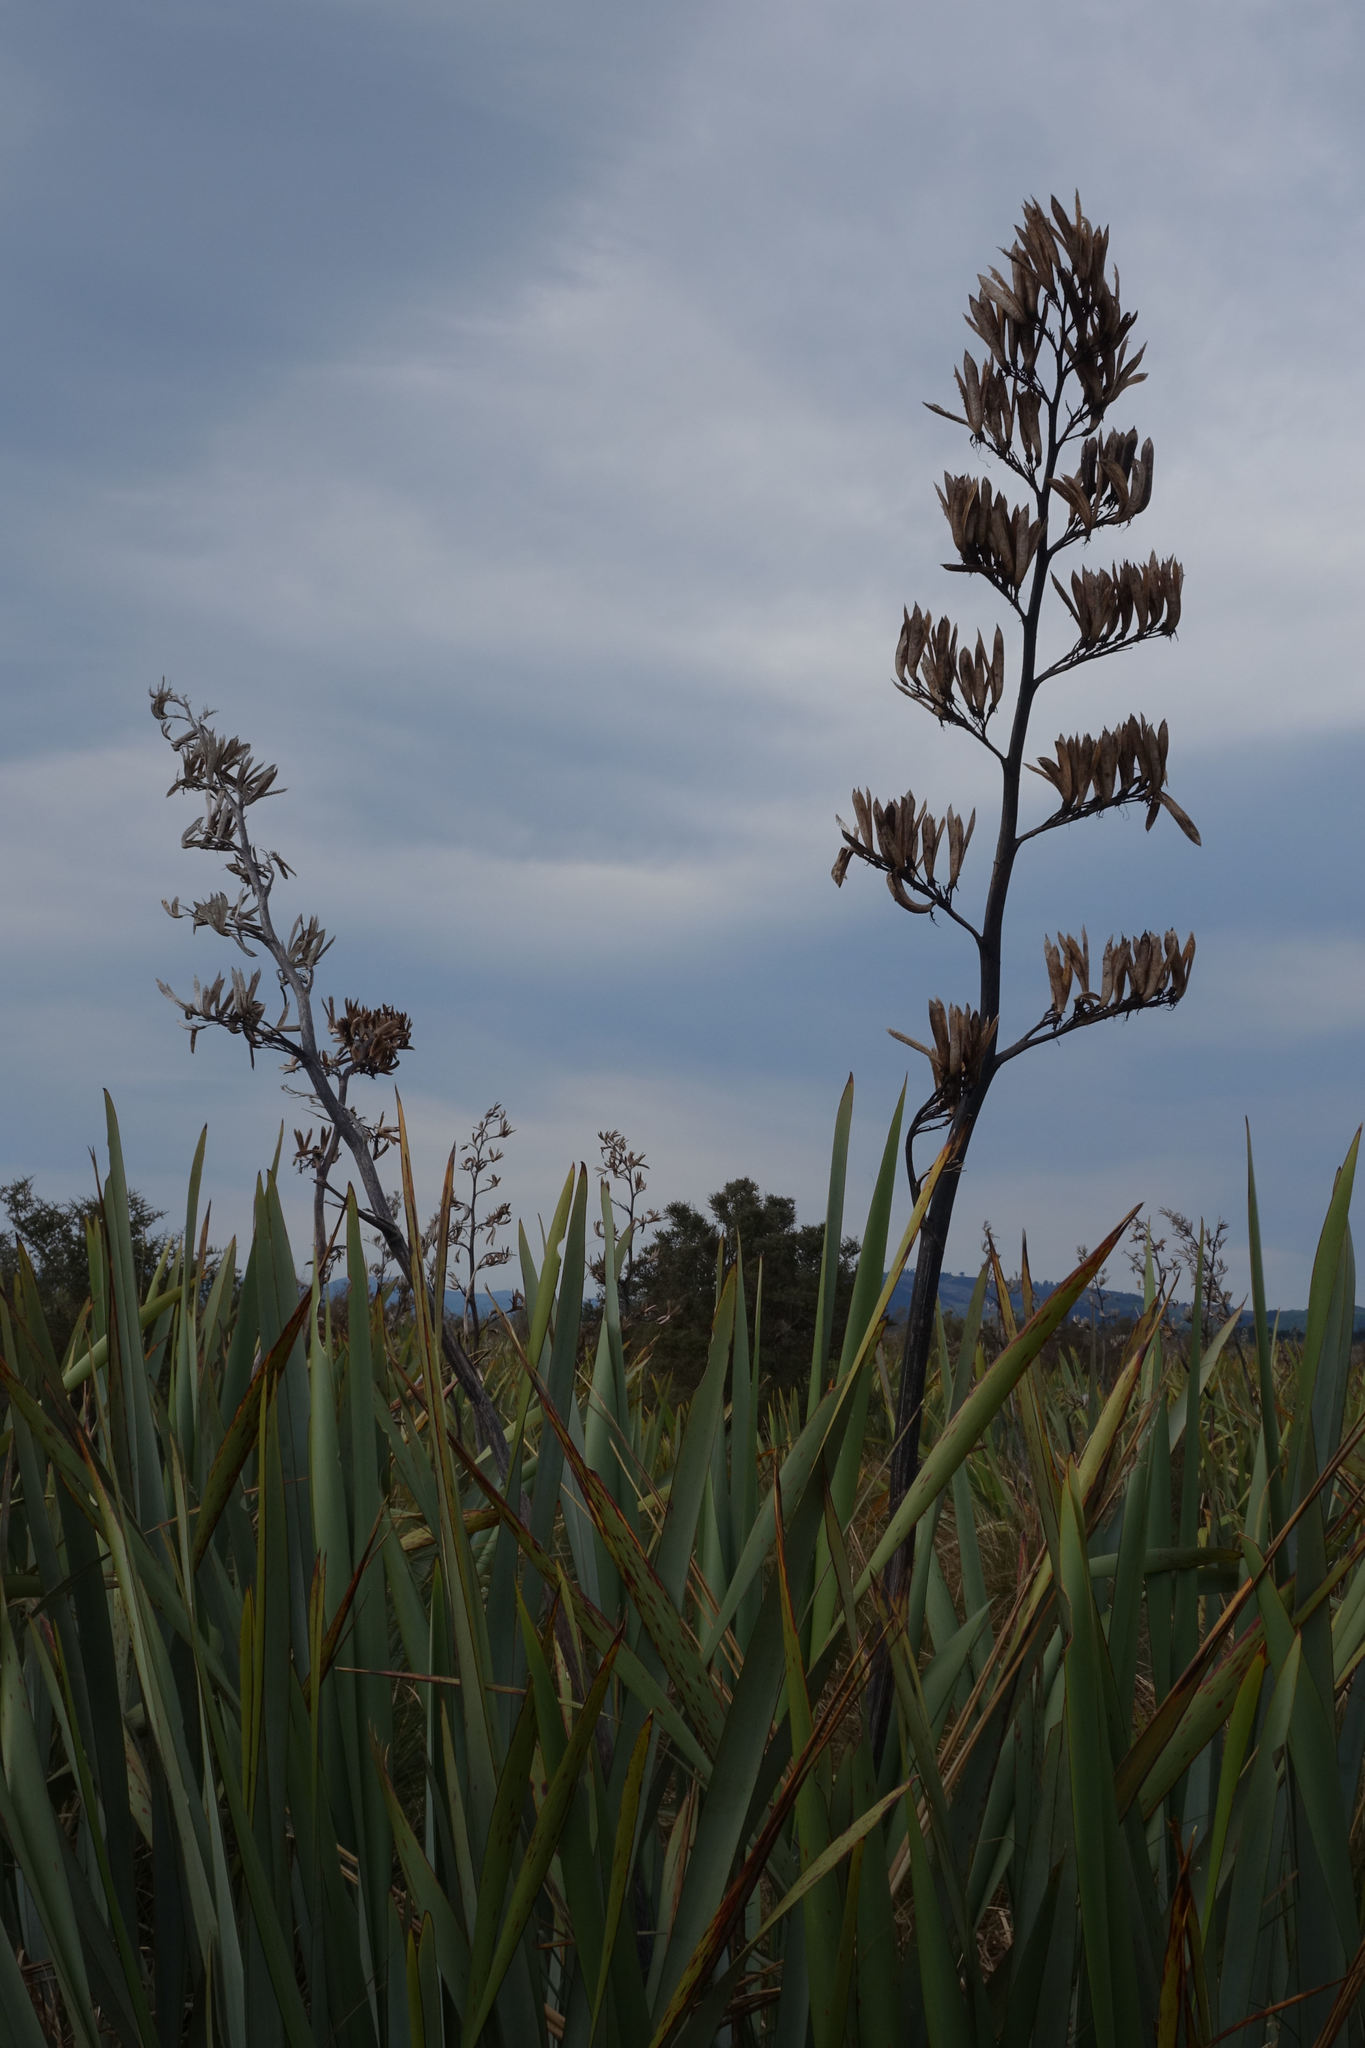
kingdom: Plantae
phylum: Tracheophyta
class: Liliopsida
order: Asparagales
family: Asphodelaceae
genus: Phormium
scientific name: Phormium tenax
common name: New zealand flax
